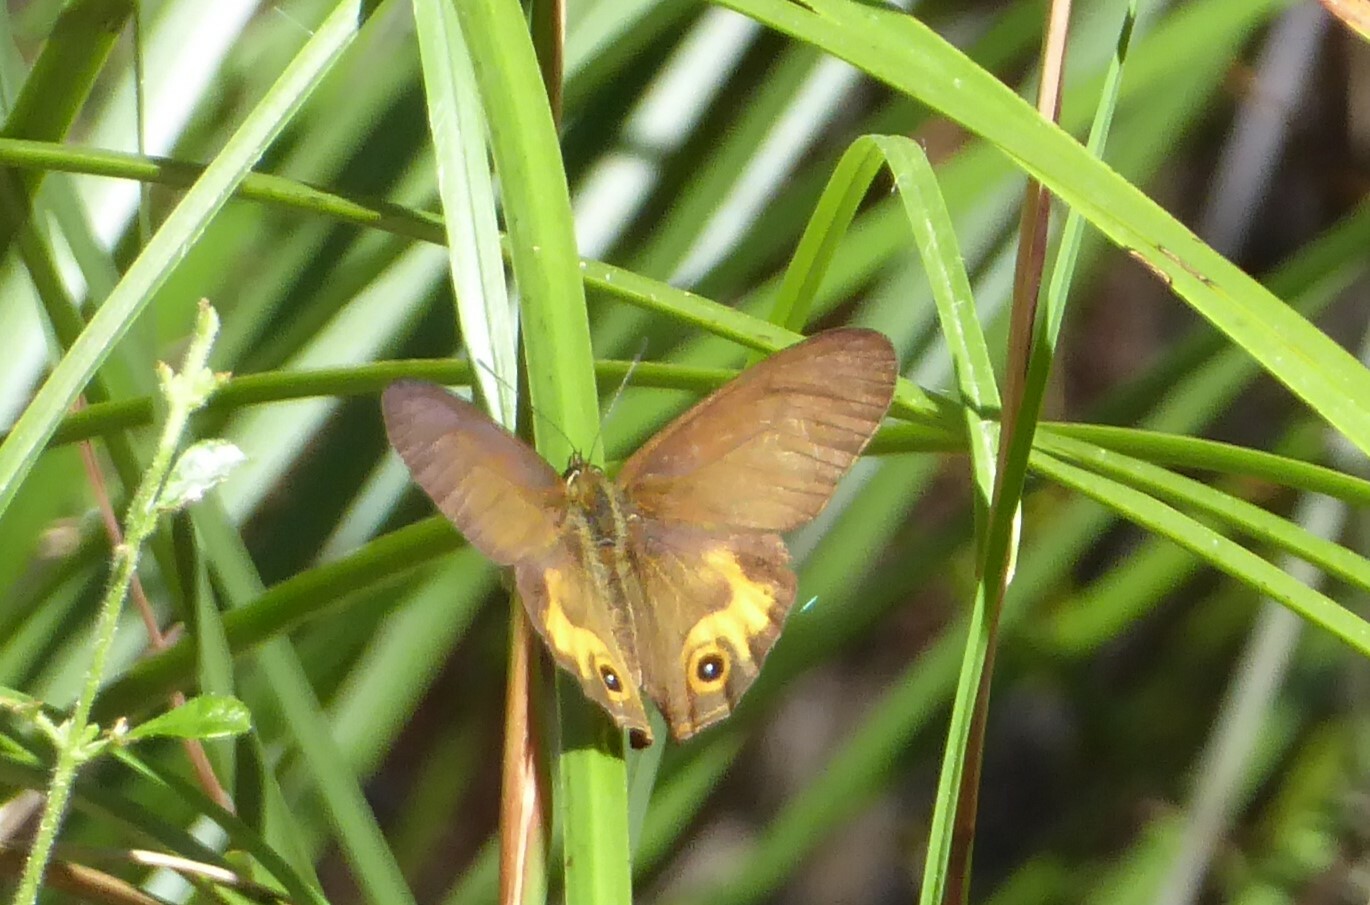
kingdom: Animalia
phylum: Arthropoda
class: Insecta
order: Lepidoptera
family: Nymphalidae
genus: Hypocysta
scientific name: Hypocysta metirius
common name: Brown ringlet
